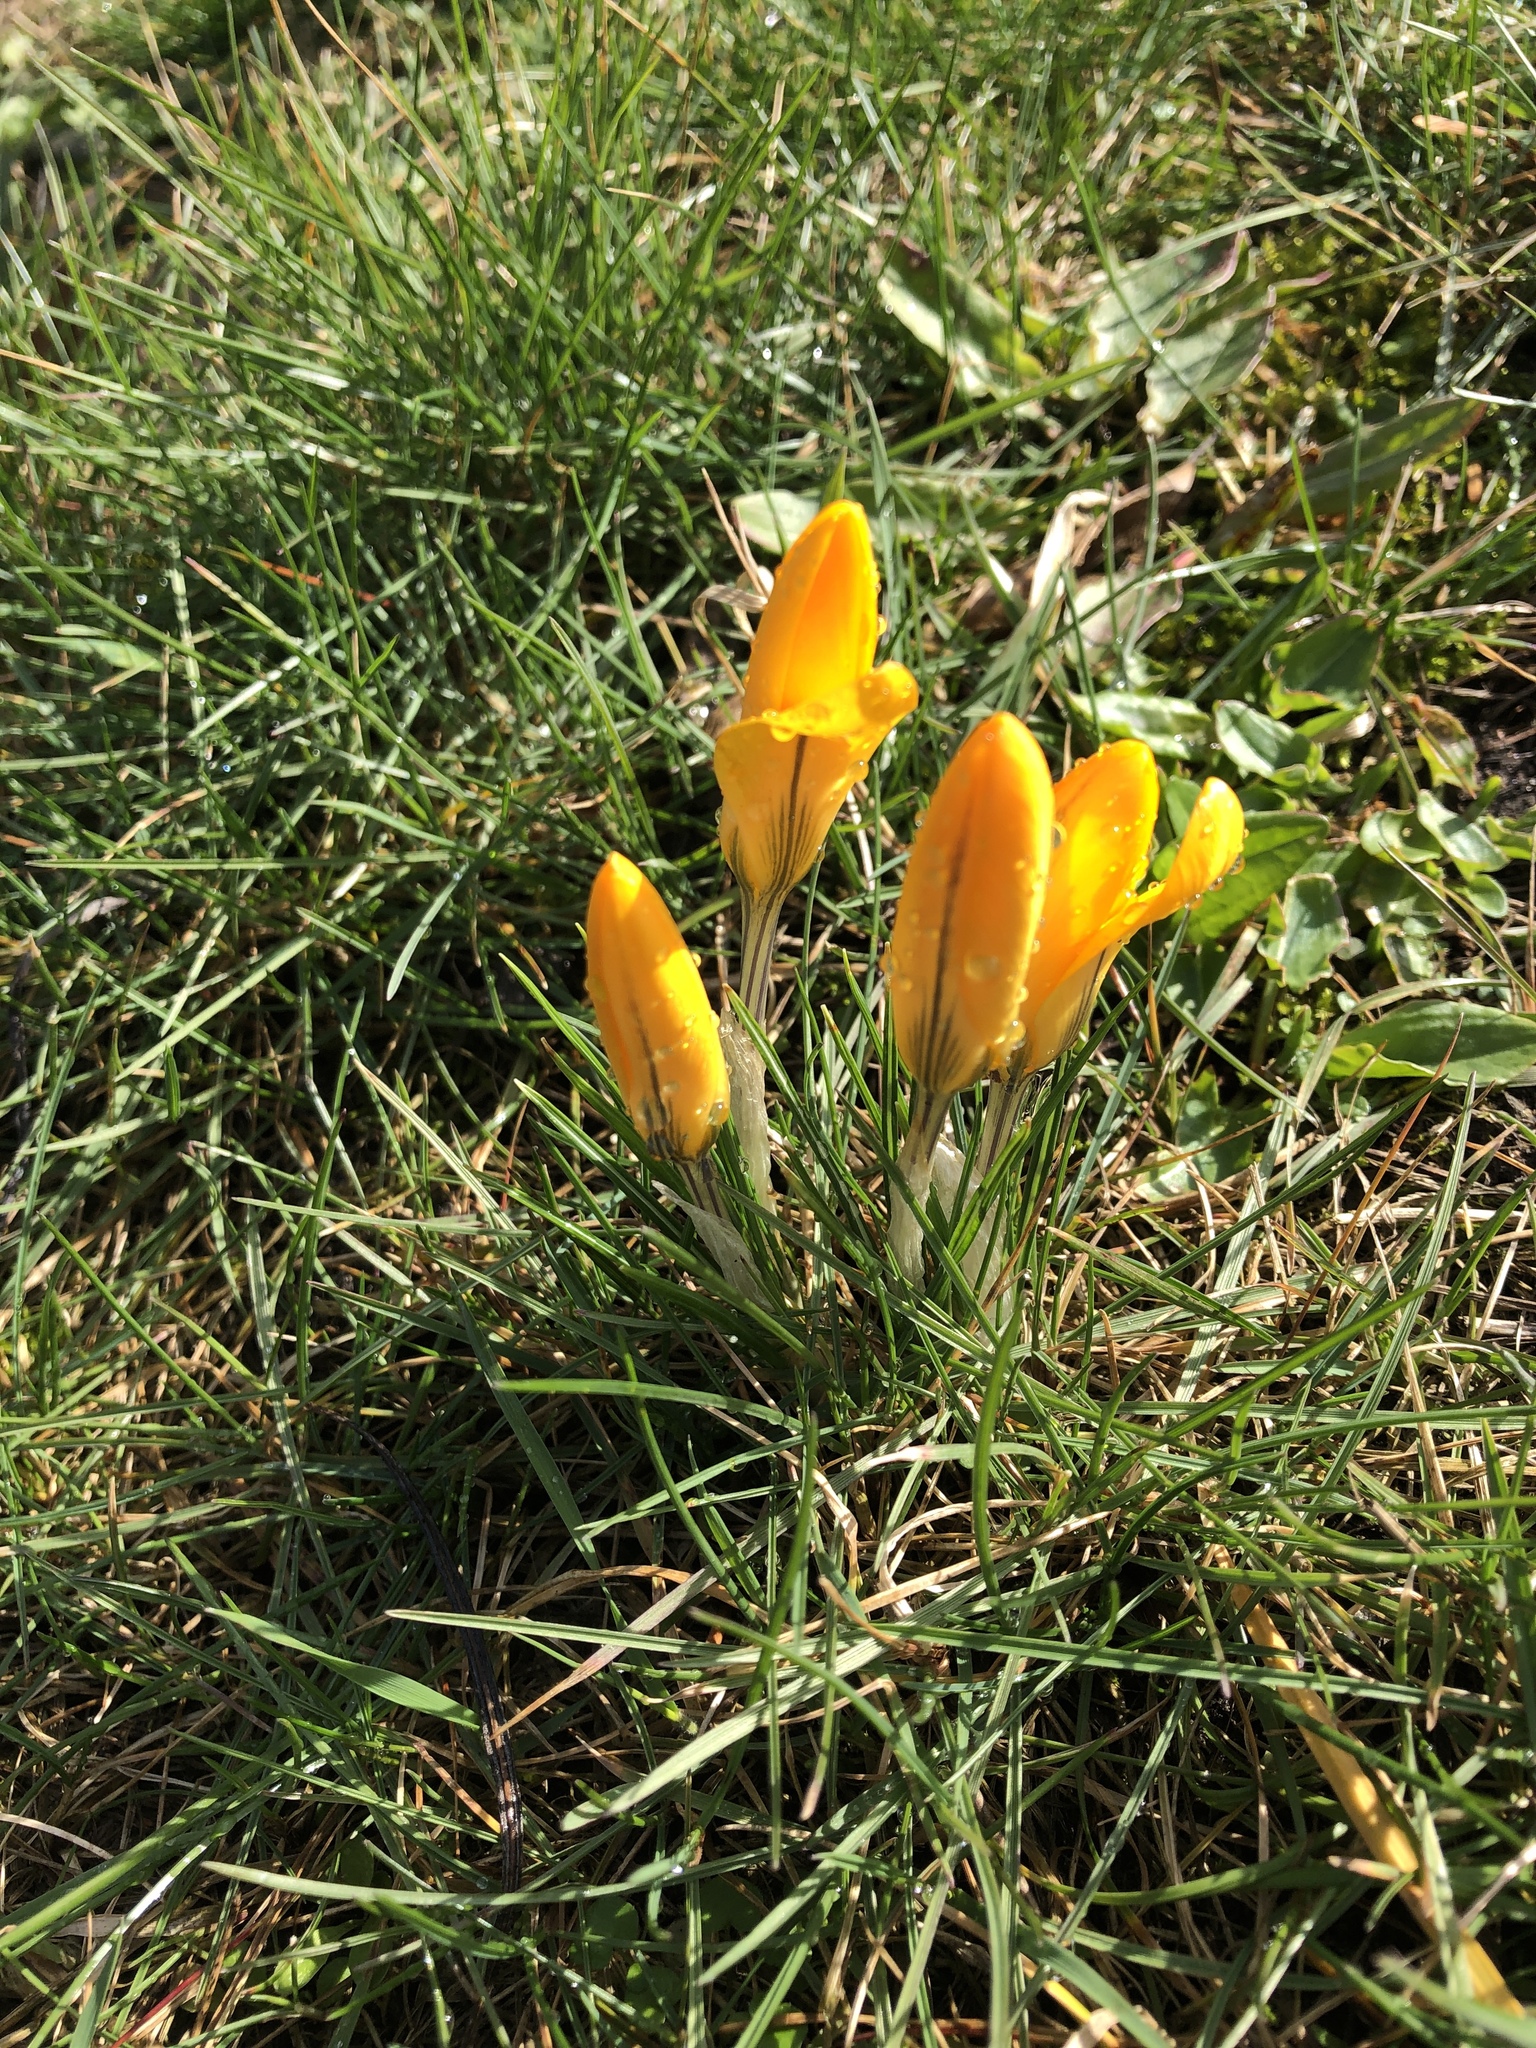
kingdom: Plantae
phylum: Tracheophyta
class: Liliopsida
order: Asparagales
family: Iridaceae
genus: Crocus
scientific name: Crocus luteus
